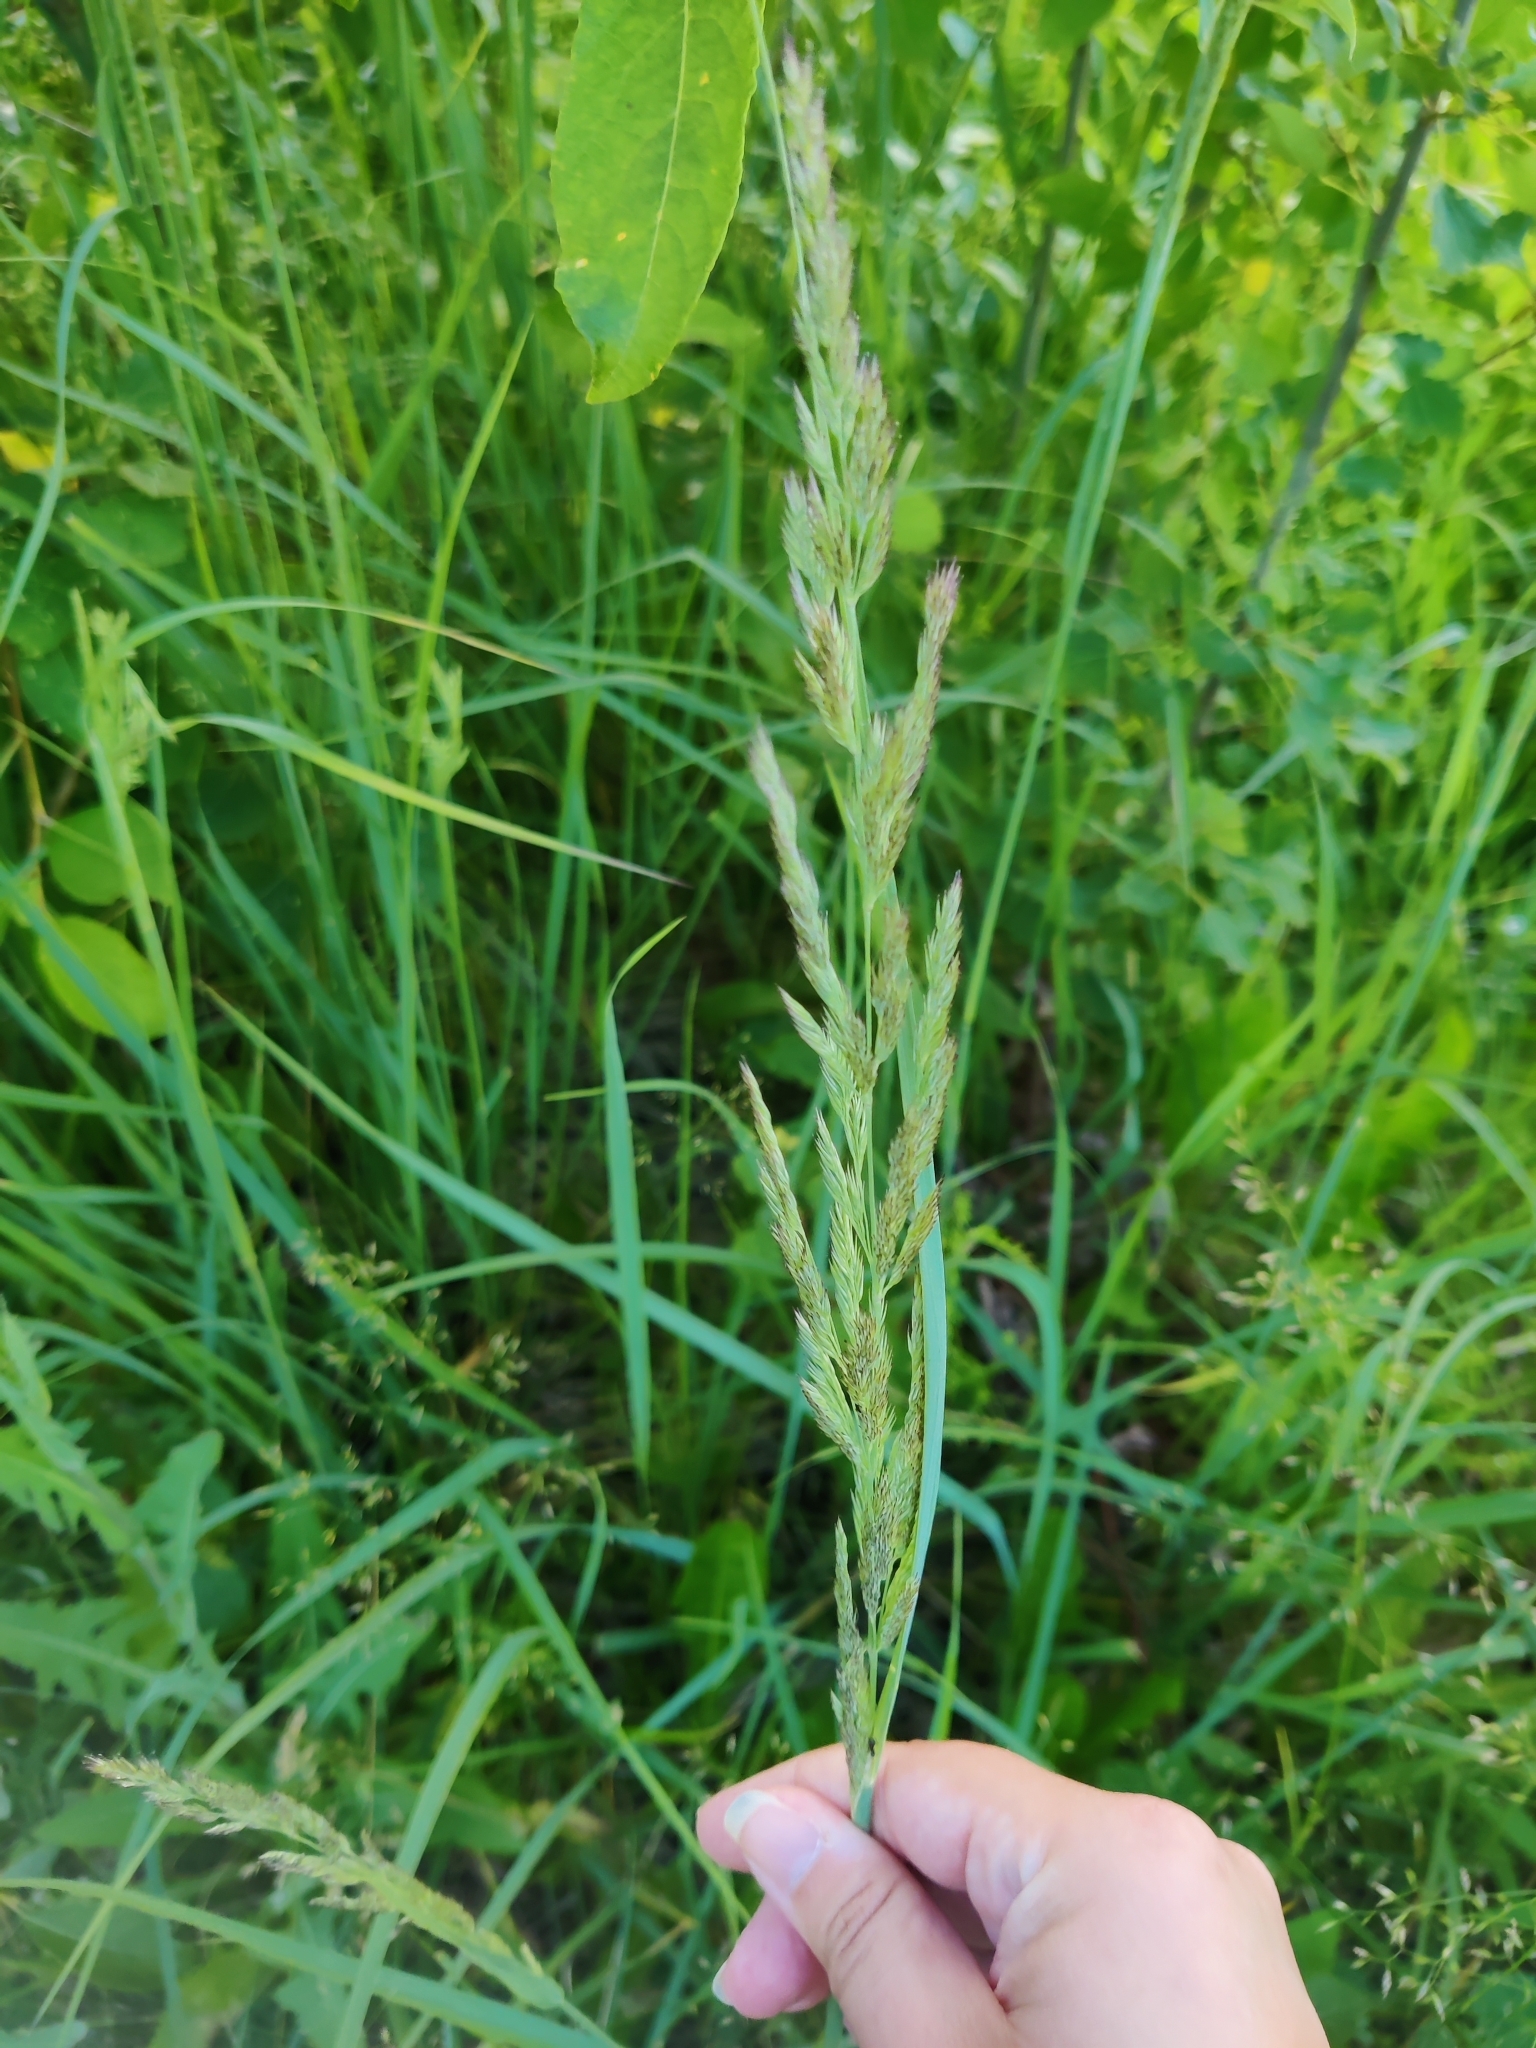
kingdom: Plantae
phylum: Tracheophyta
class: Liliopsida
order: Poales
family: Poaceae
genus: Calamagrostis
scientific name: Calamagrostis epigejos
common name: Wood small-reed
